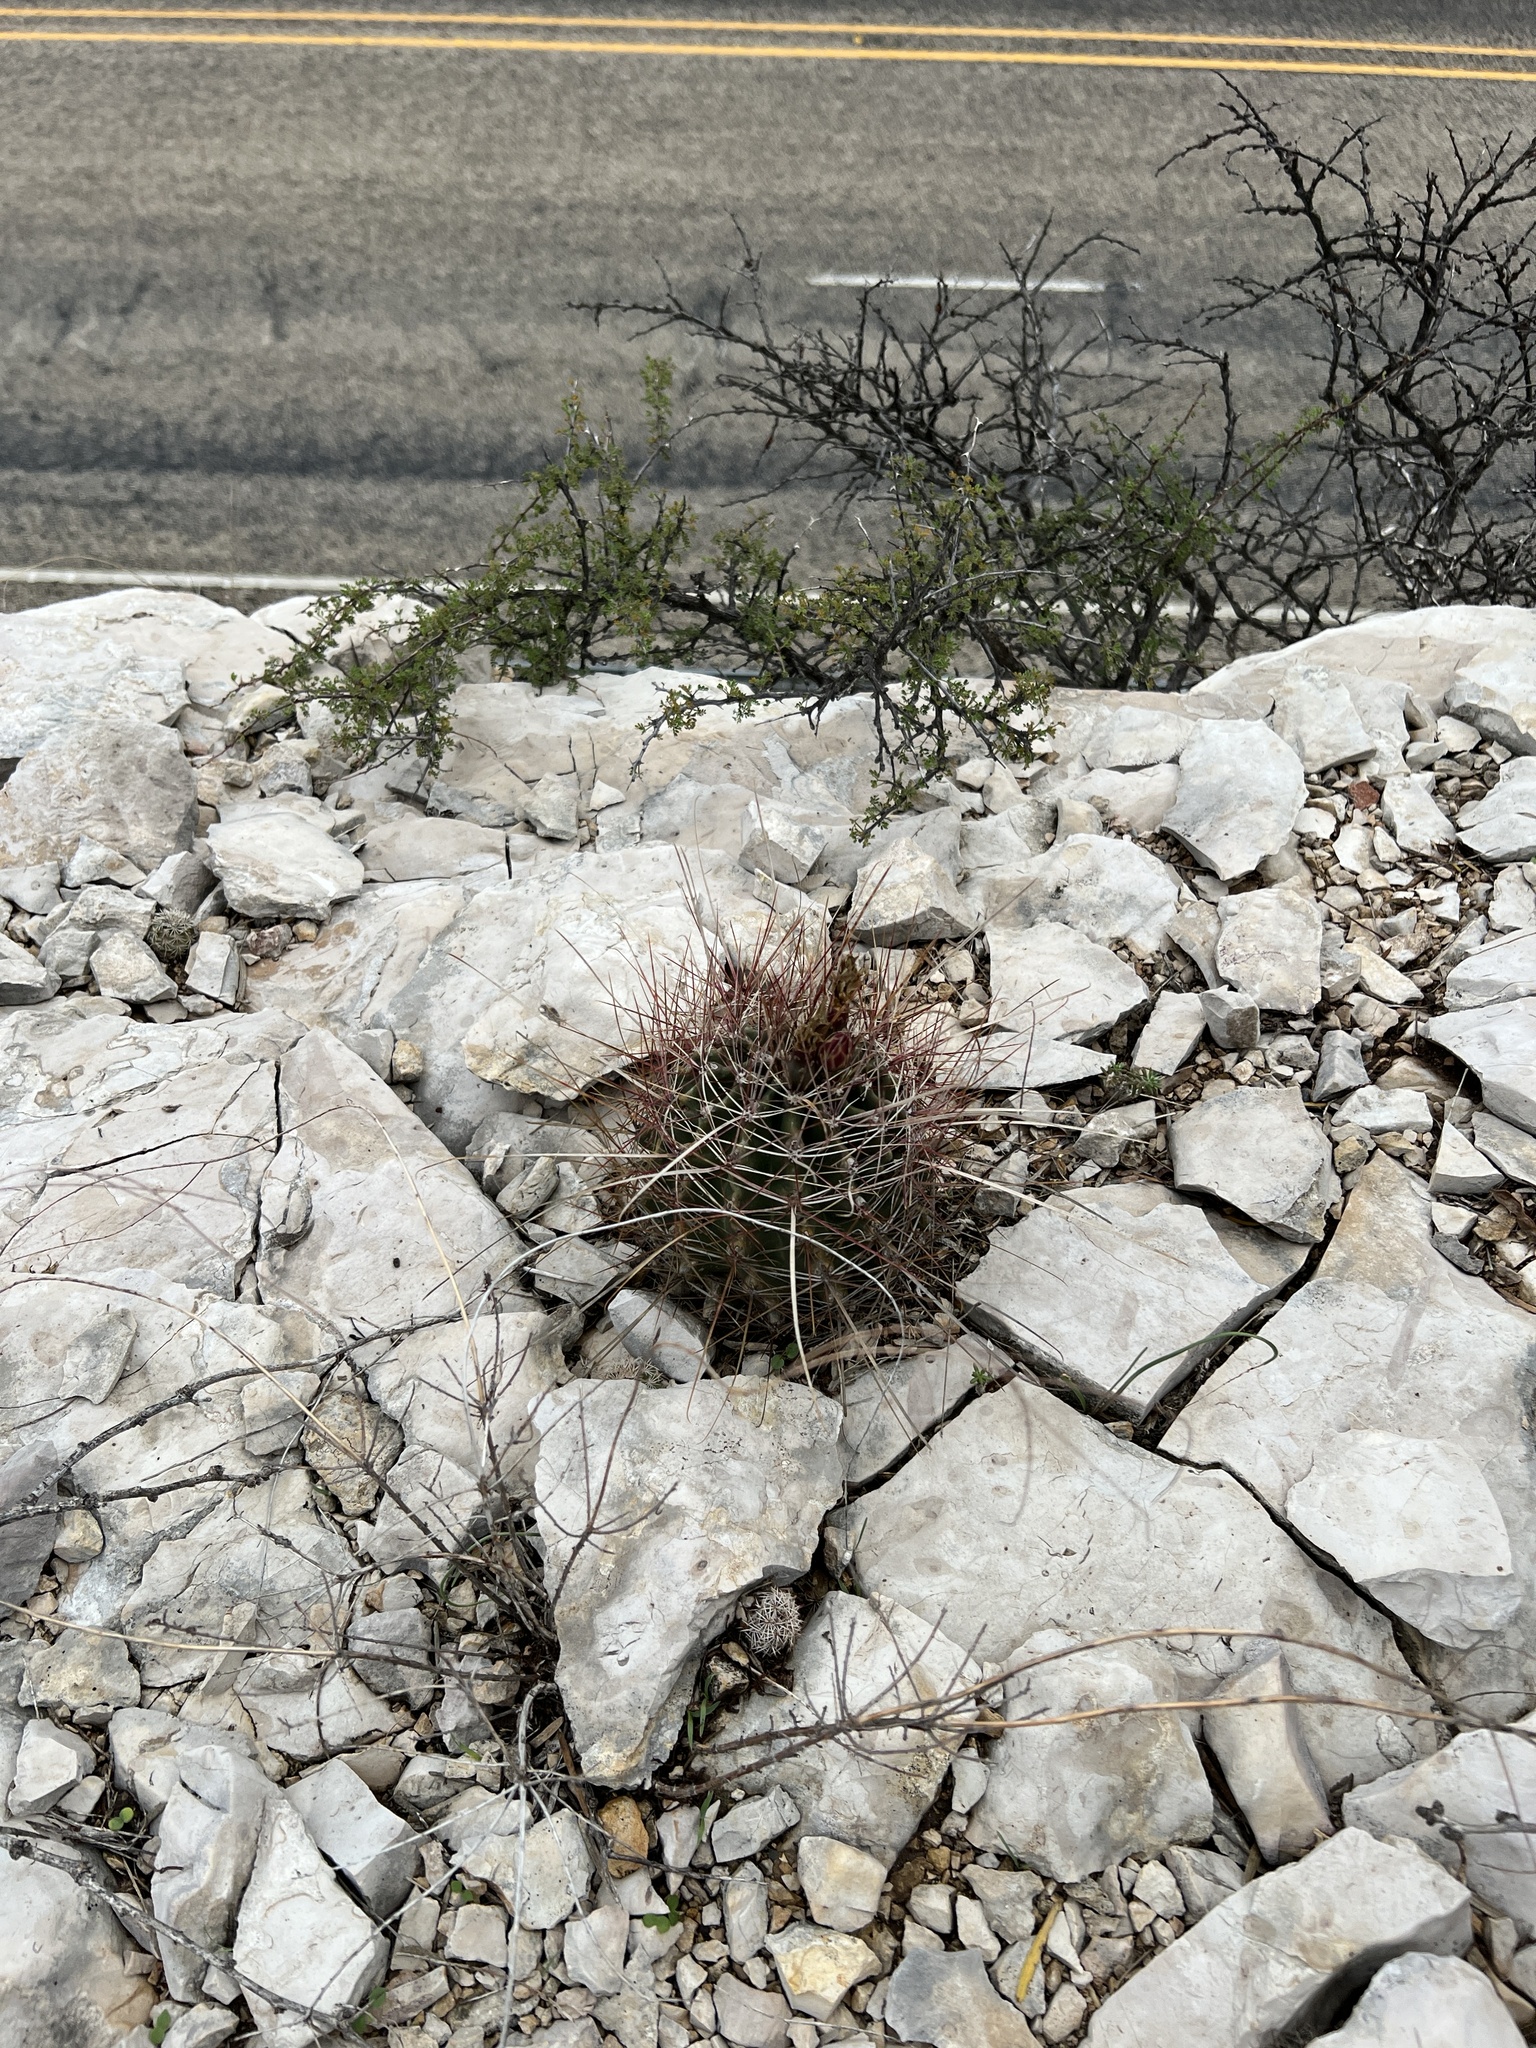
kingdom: Plantae
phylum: Tracheophyta
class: Magnoliopsida
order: Caryophyllales
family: Cactaceae
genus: Bisnaga
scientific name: Bisnaga hamatacantha
